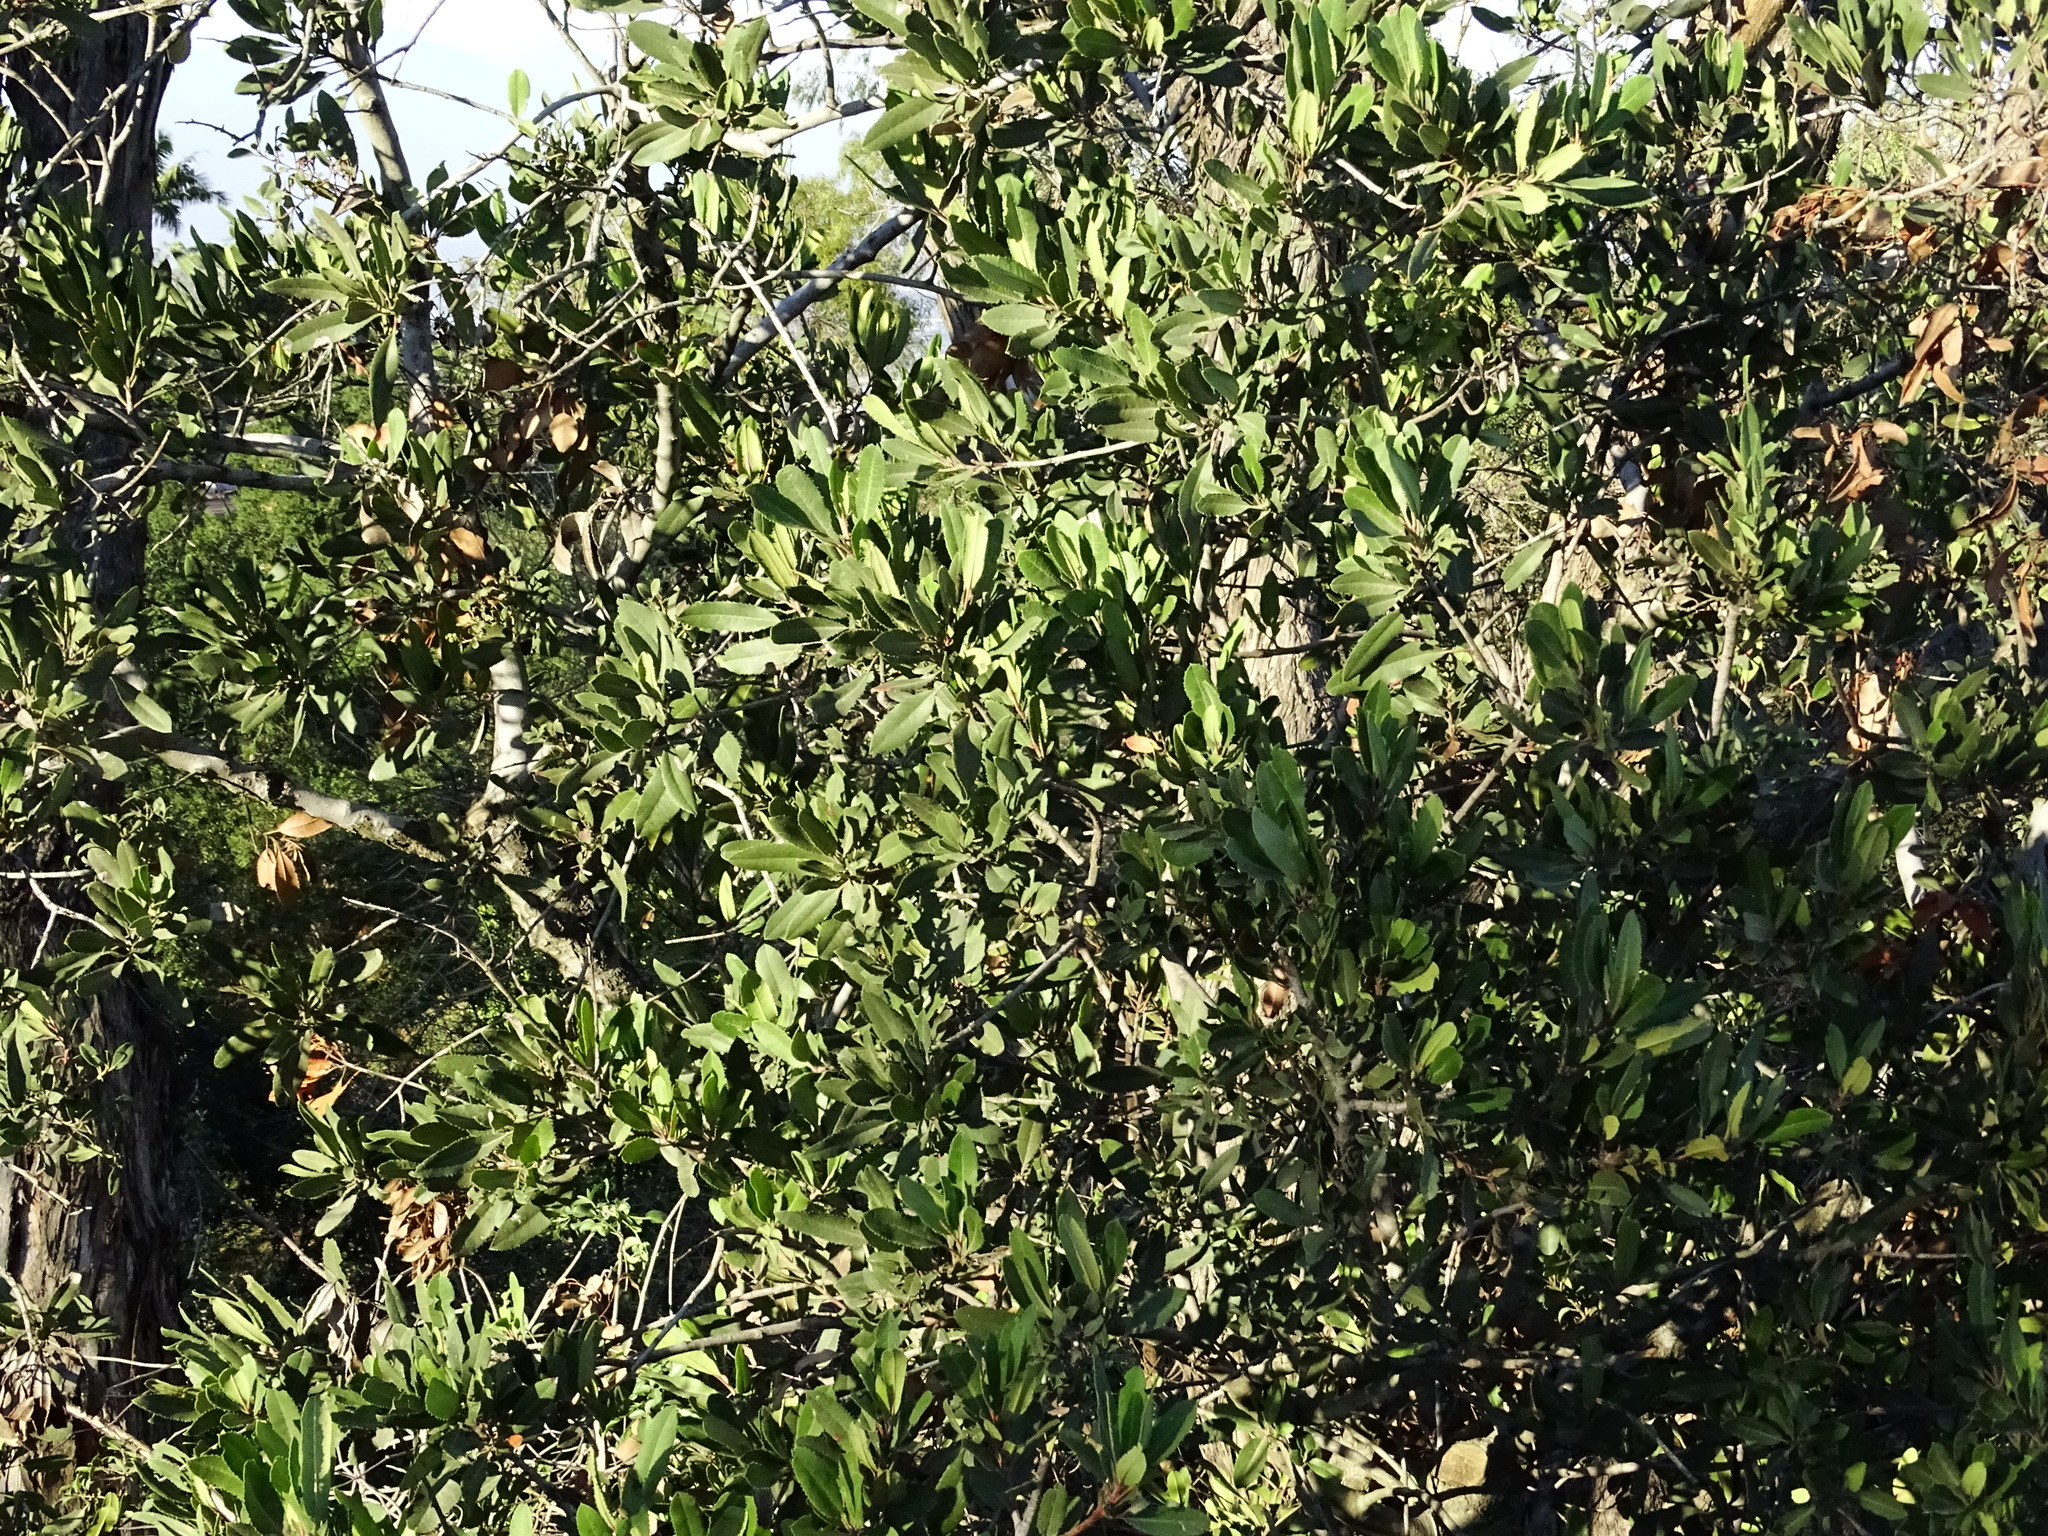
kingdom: Plantae
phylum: Tracheophyta
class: Magnoliopsida
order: Rosales
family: Rosaceae
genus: Heteromeles
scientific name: Heteromeles arbutifolia
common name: California-holly
